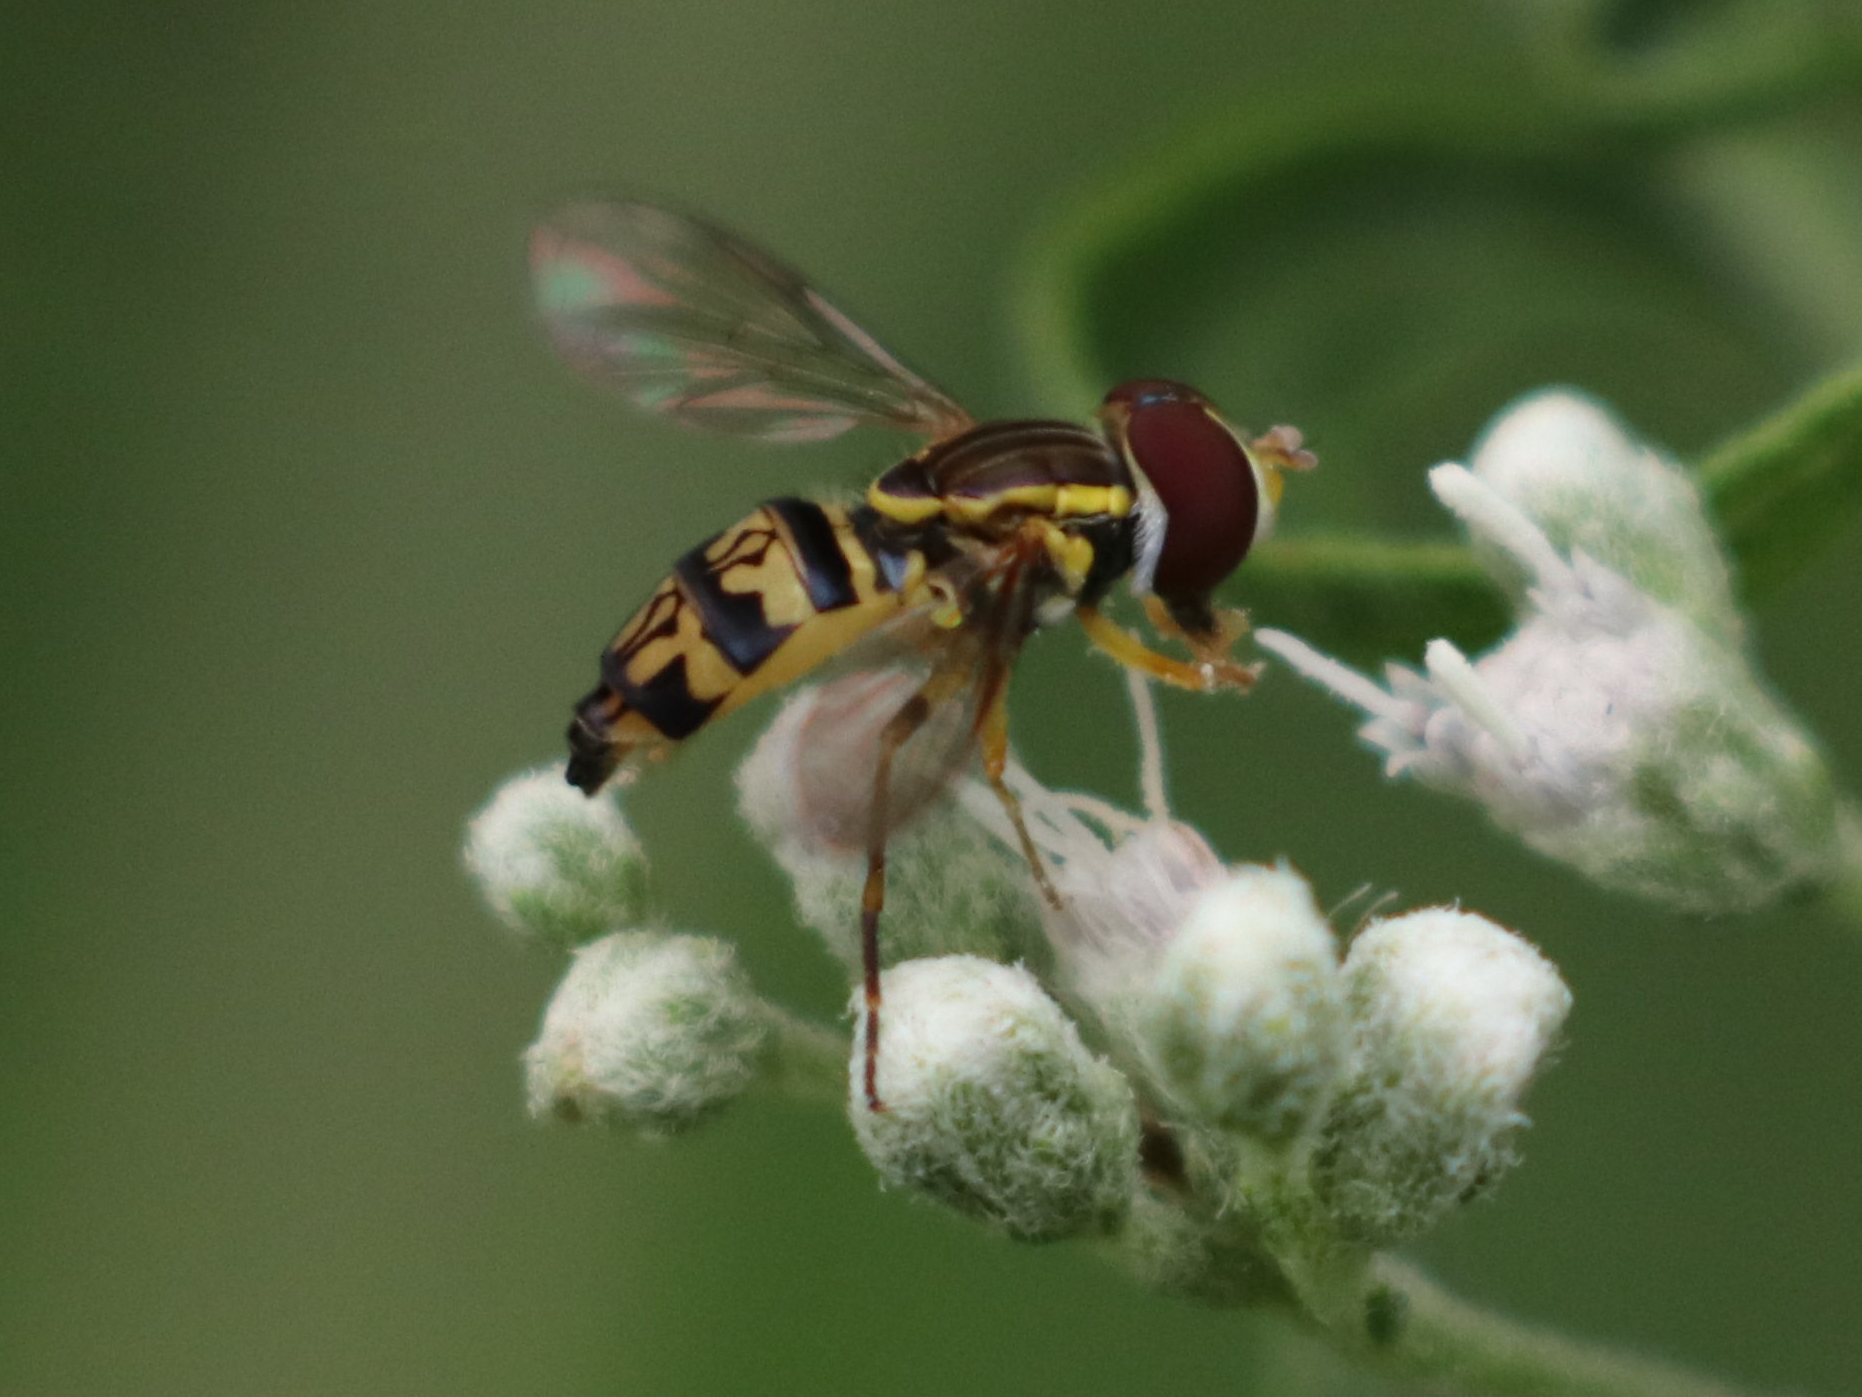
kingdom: Animalia
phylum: Arthropoda
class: Insecta
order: Diptera
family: Syrphidae
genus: Toxomerus
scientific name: Toxomerus geminatus
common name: Eastern calligrapher
